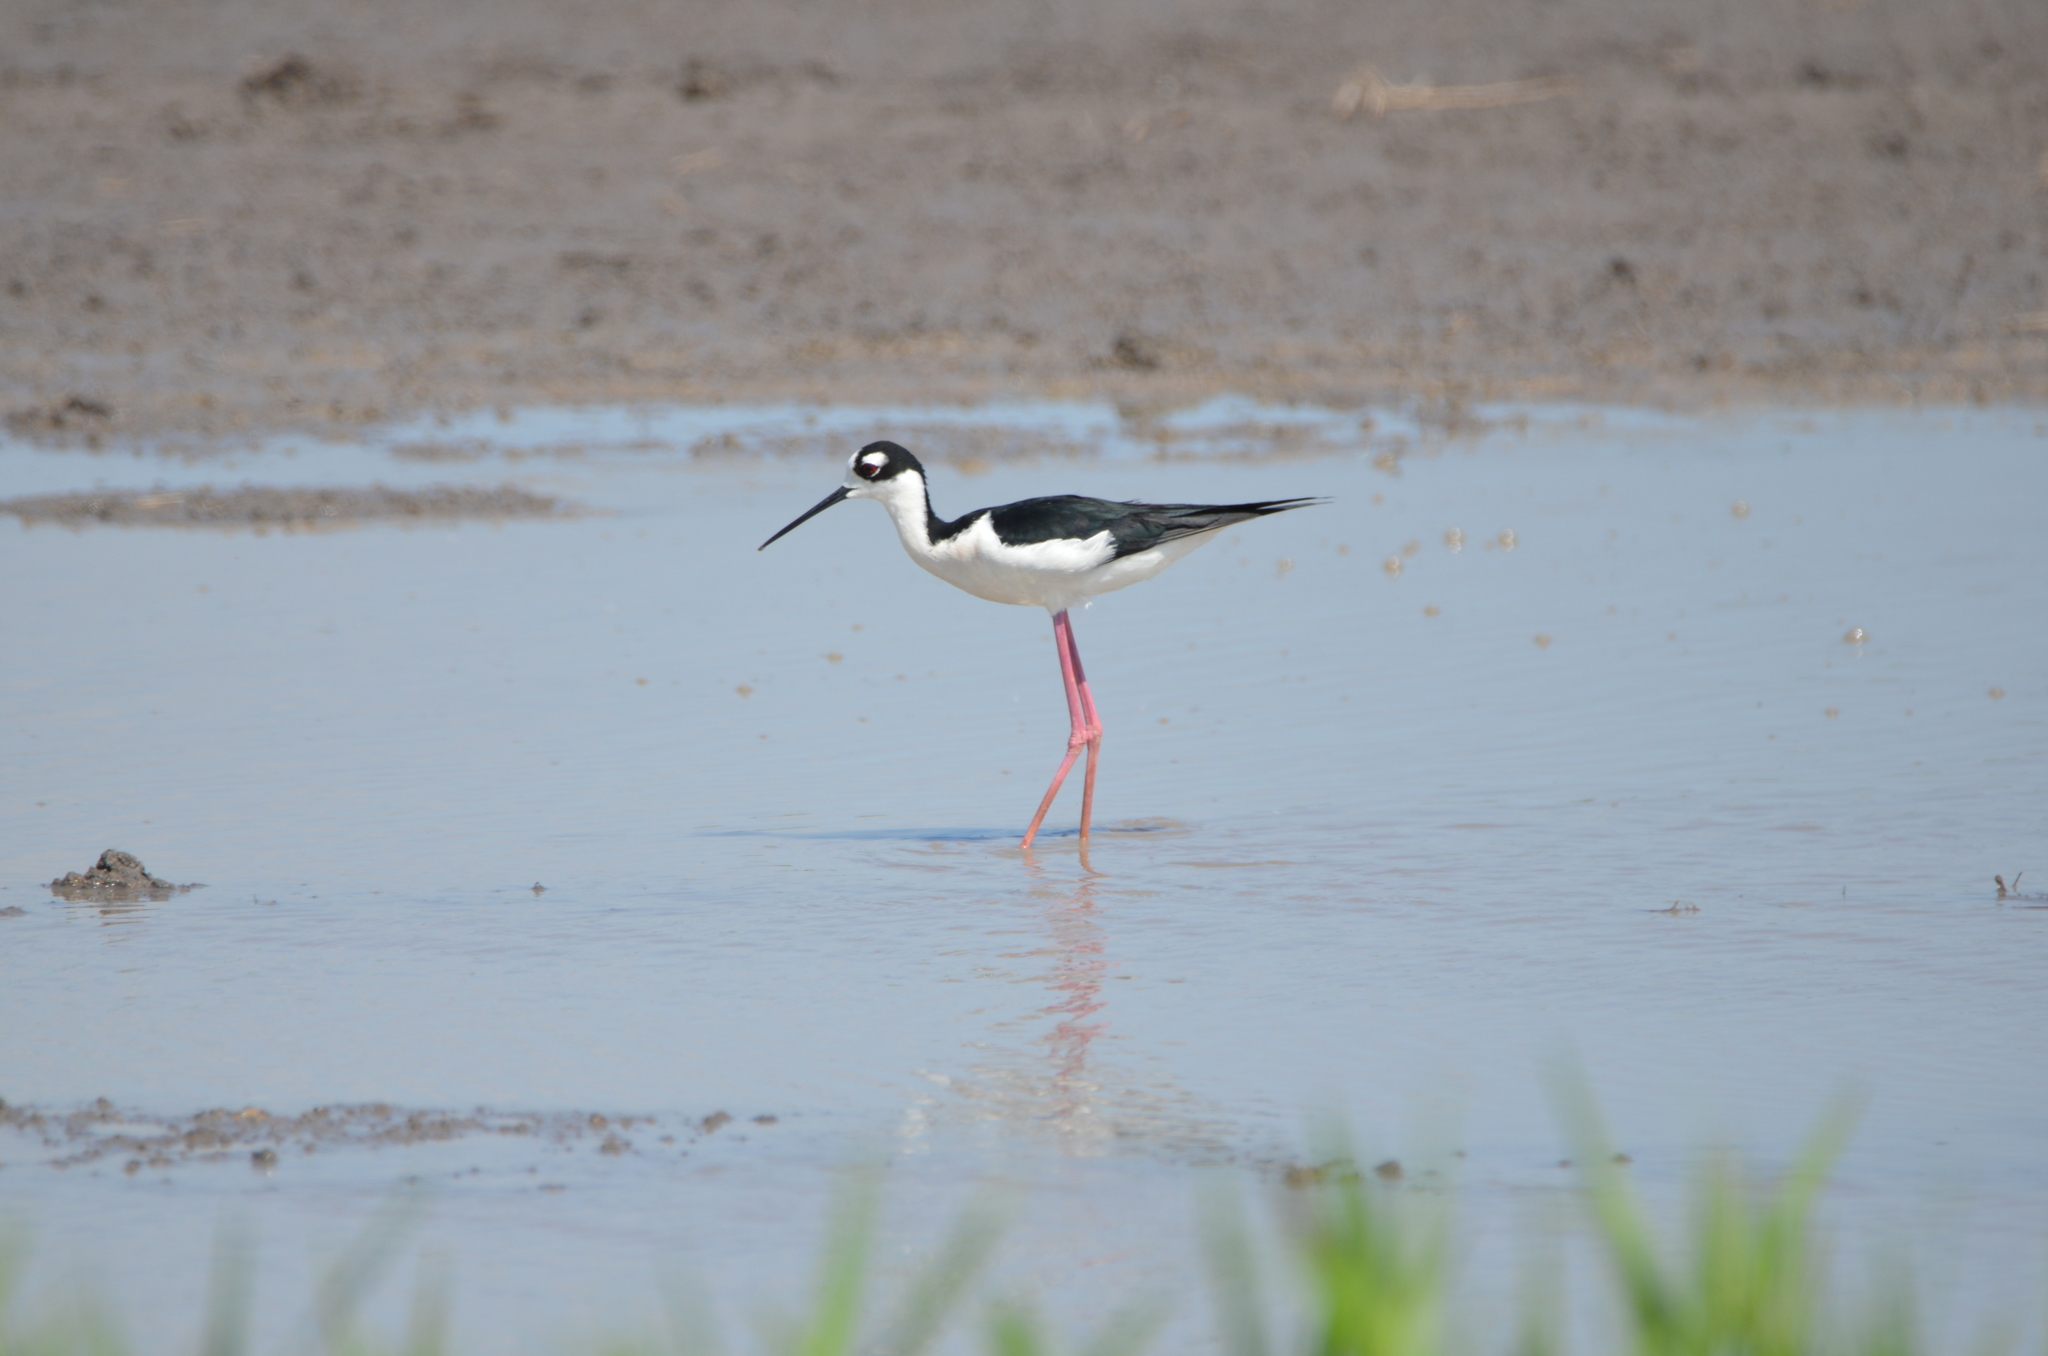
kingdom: Animalia
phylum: Chordata
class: Aves
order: Charadriiformes
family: Recurvirostridae
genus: Himantopus
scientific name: Himantopus mexicanus
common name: Black-necked stilt
